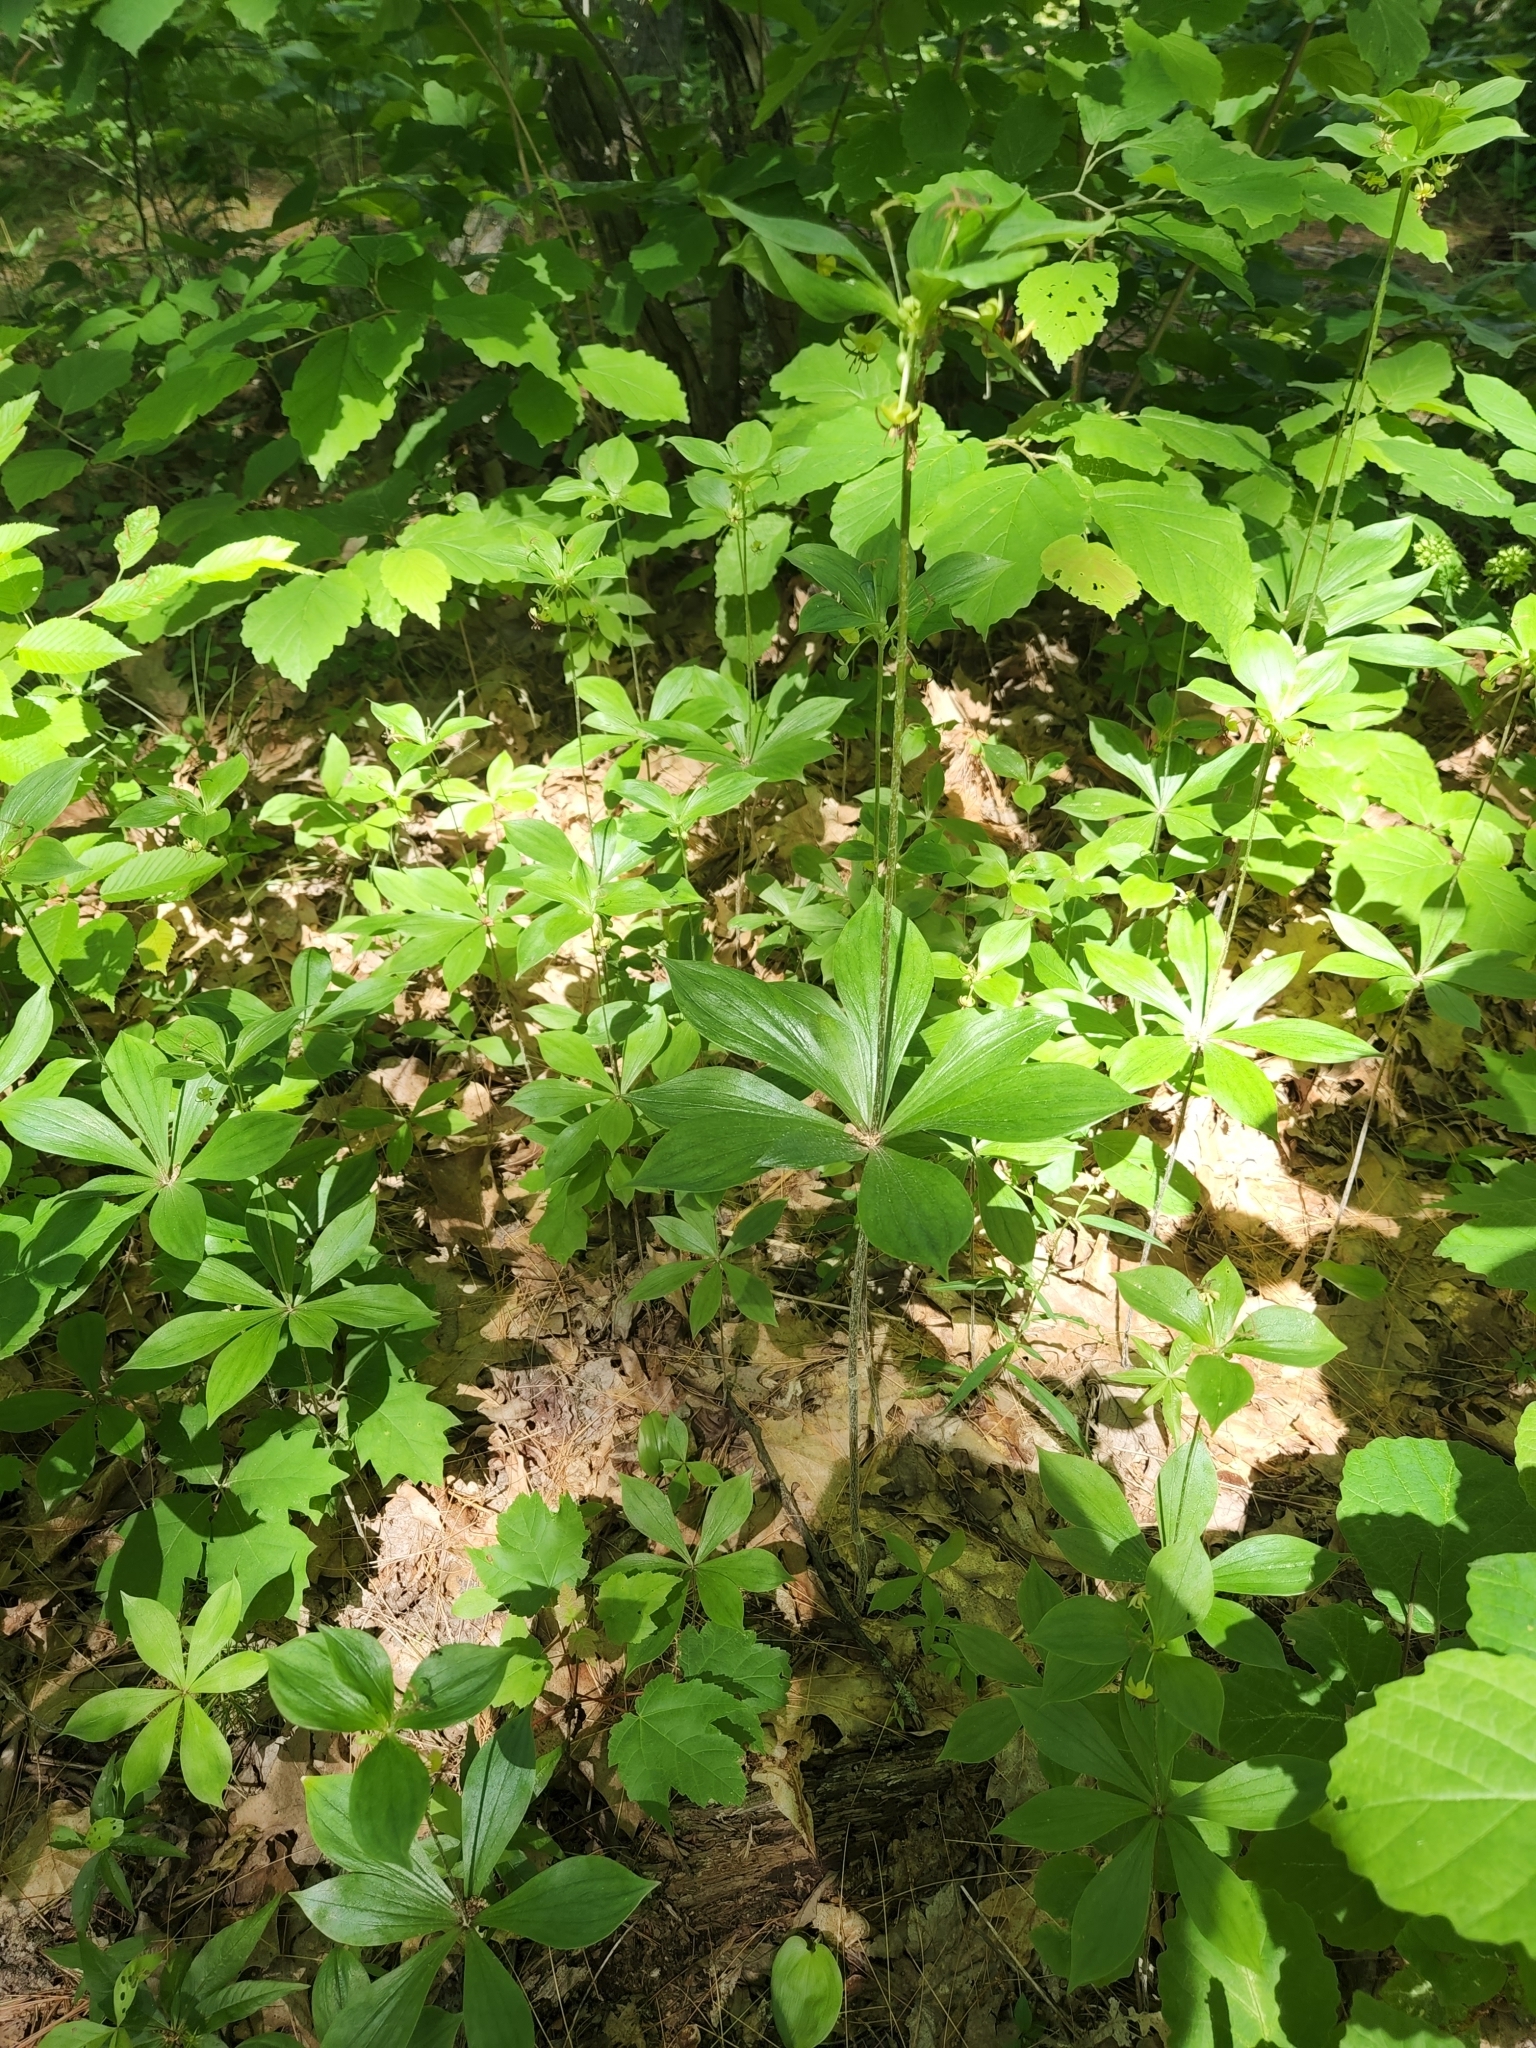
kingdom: Plantae
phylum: Tracheophyta
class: Liliopsida
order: Liliales
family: Liliaceae
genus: Medeola
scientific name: Medeola virginiana
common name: Indian cucumber-root
